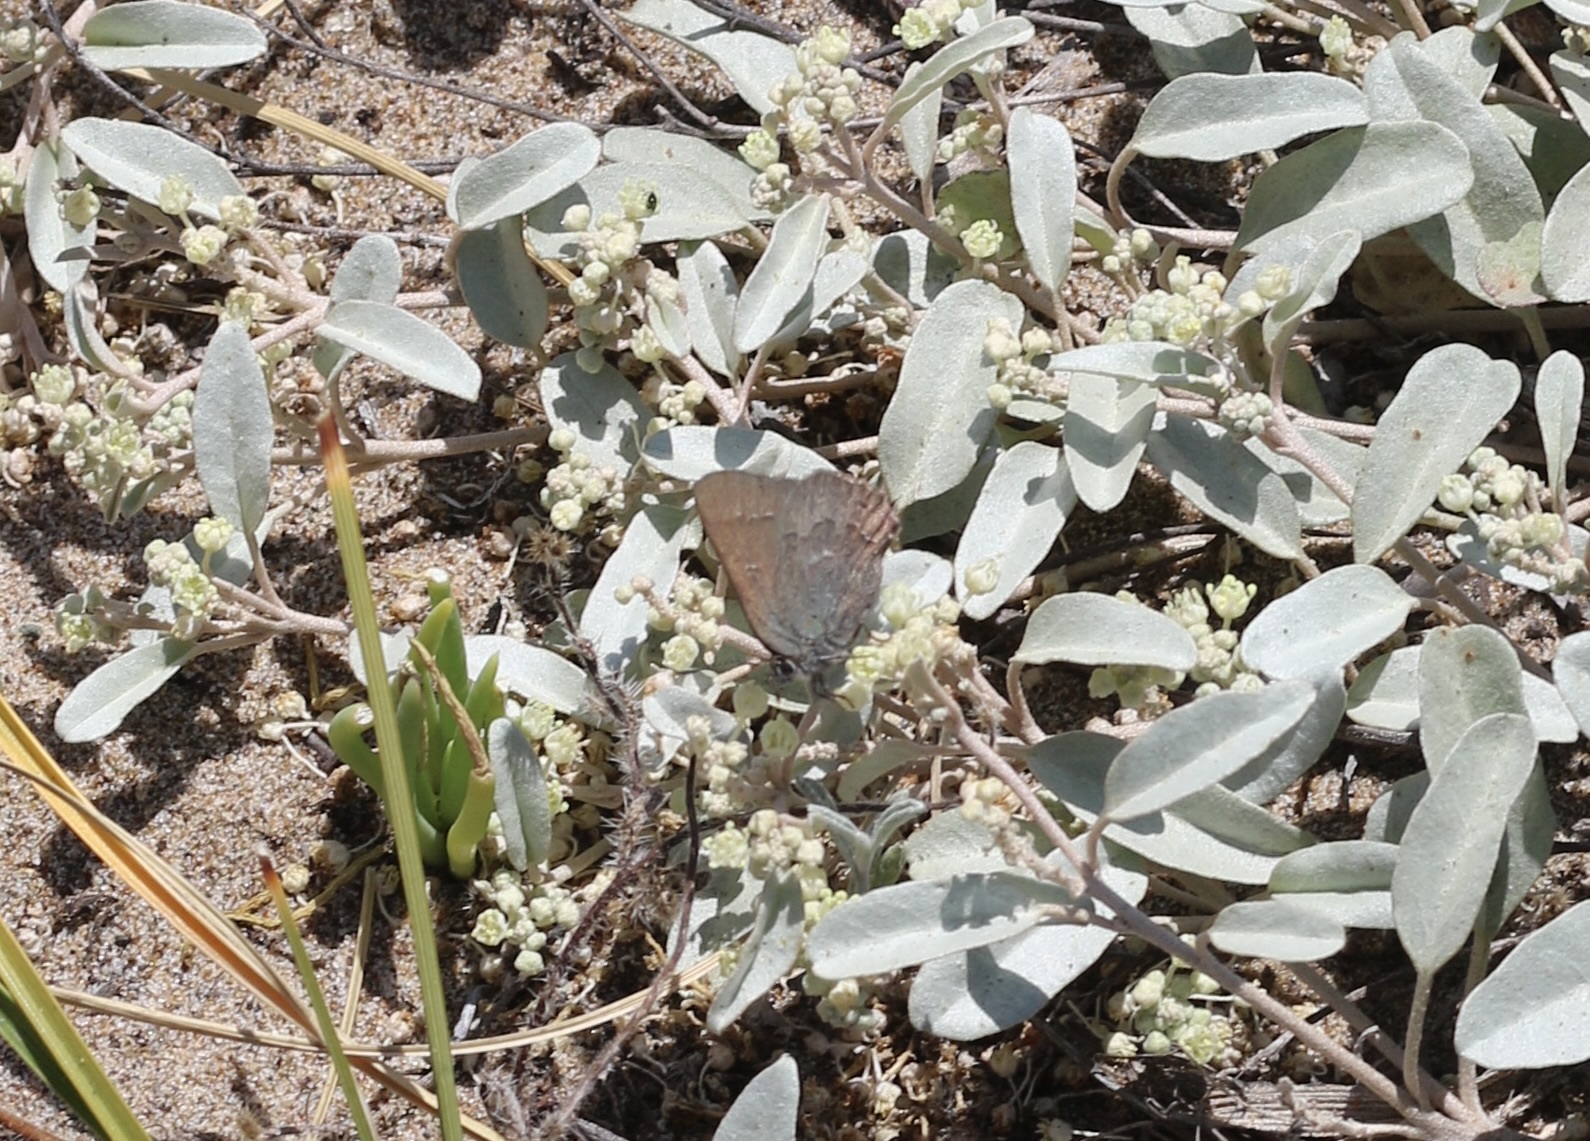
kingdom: Animalia
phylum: Arthropoda
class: Insecta
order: Lepidoptera
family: Lycaenidae
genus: Strymon
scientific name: Strymon saepium
